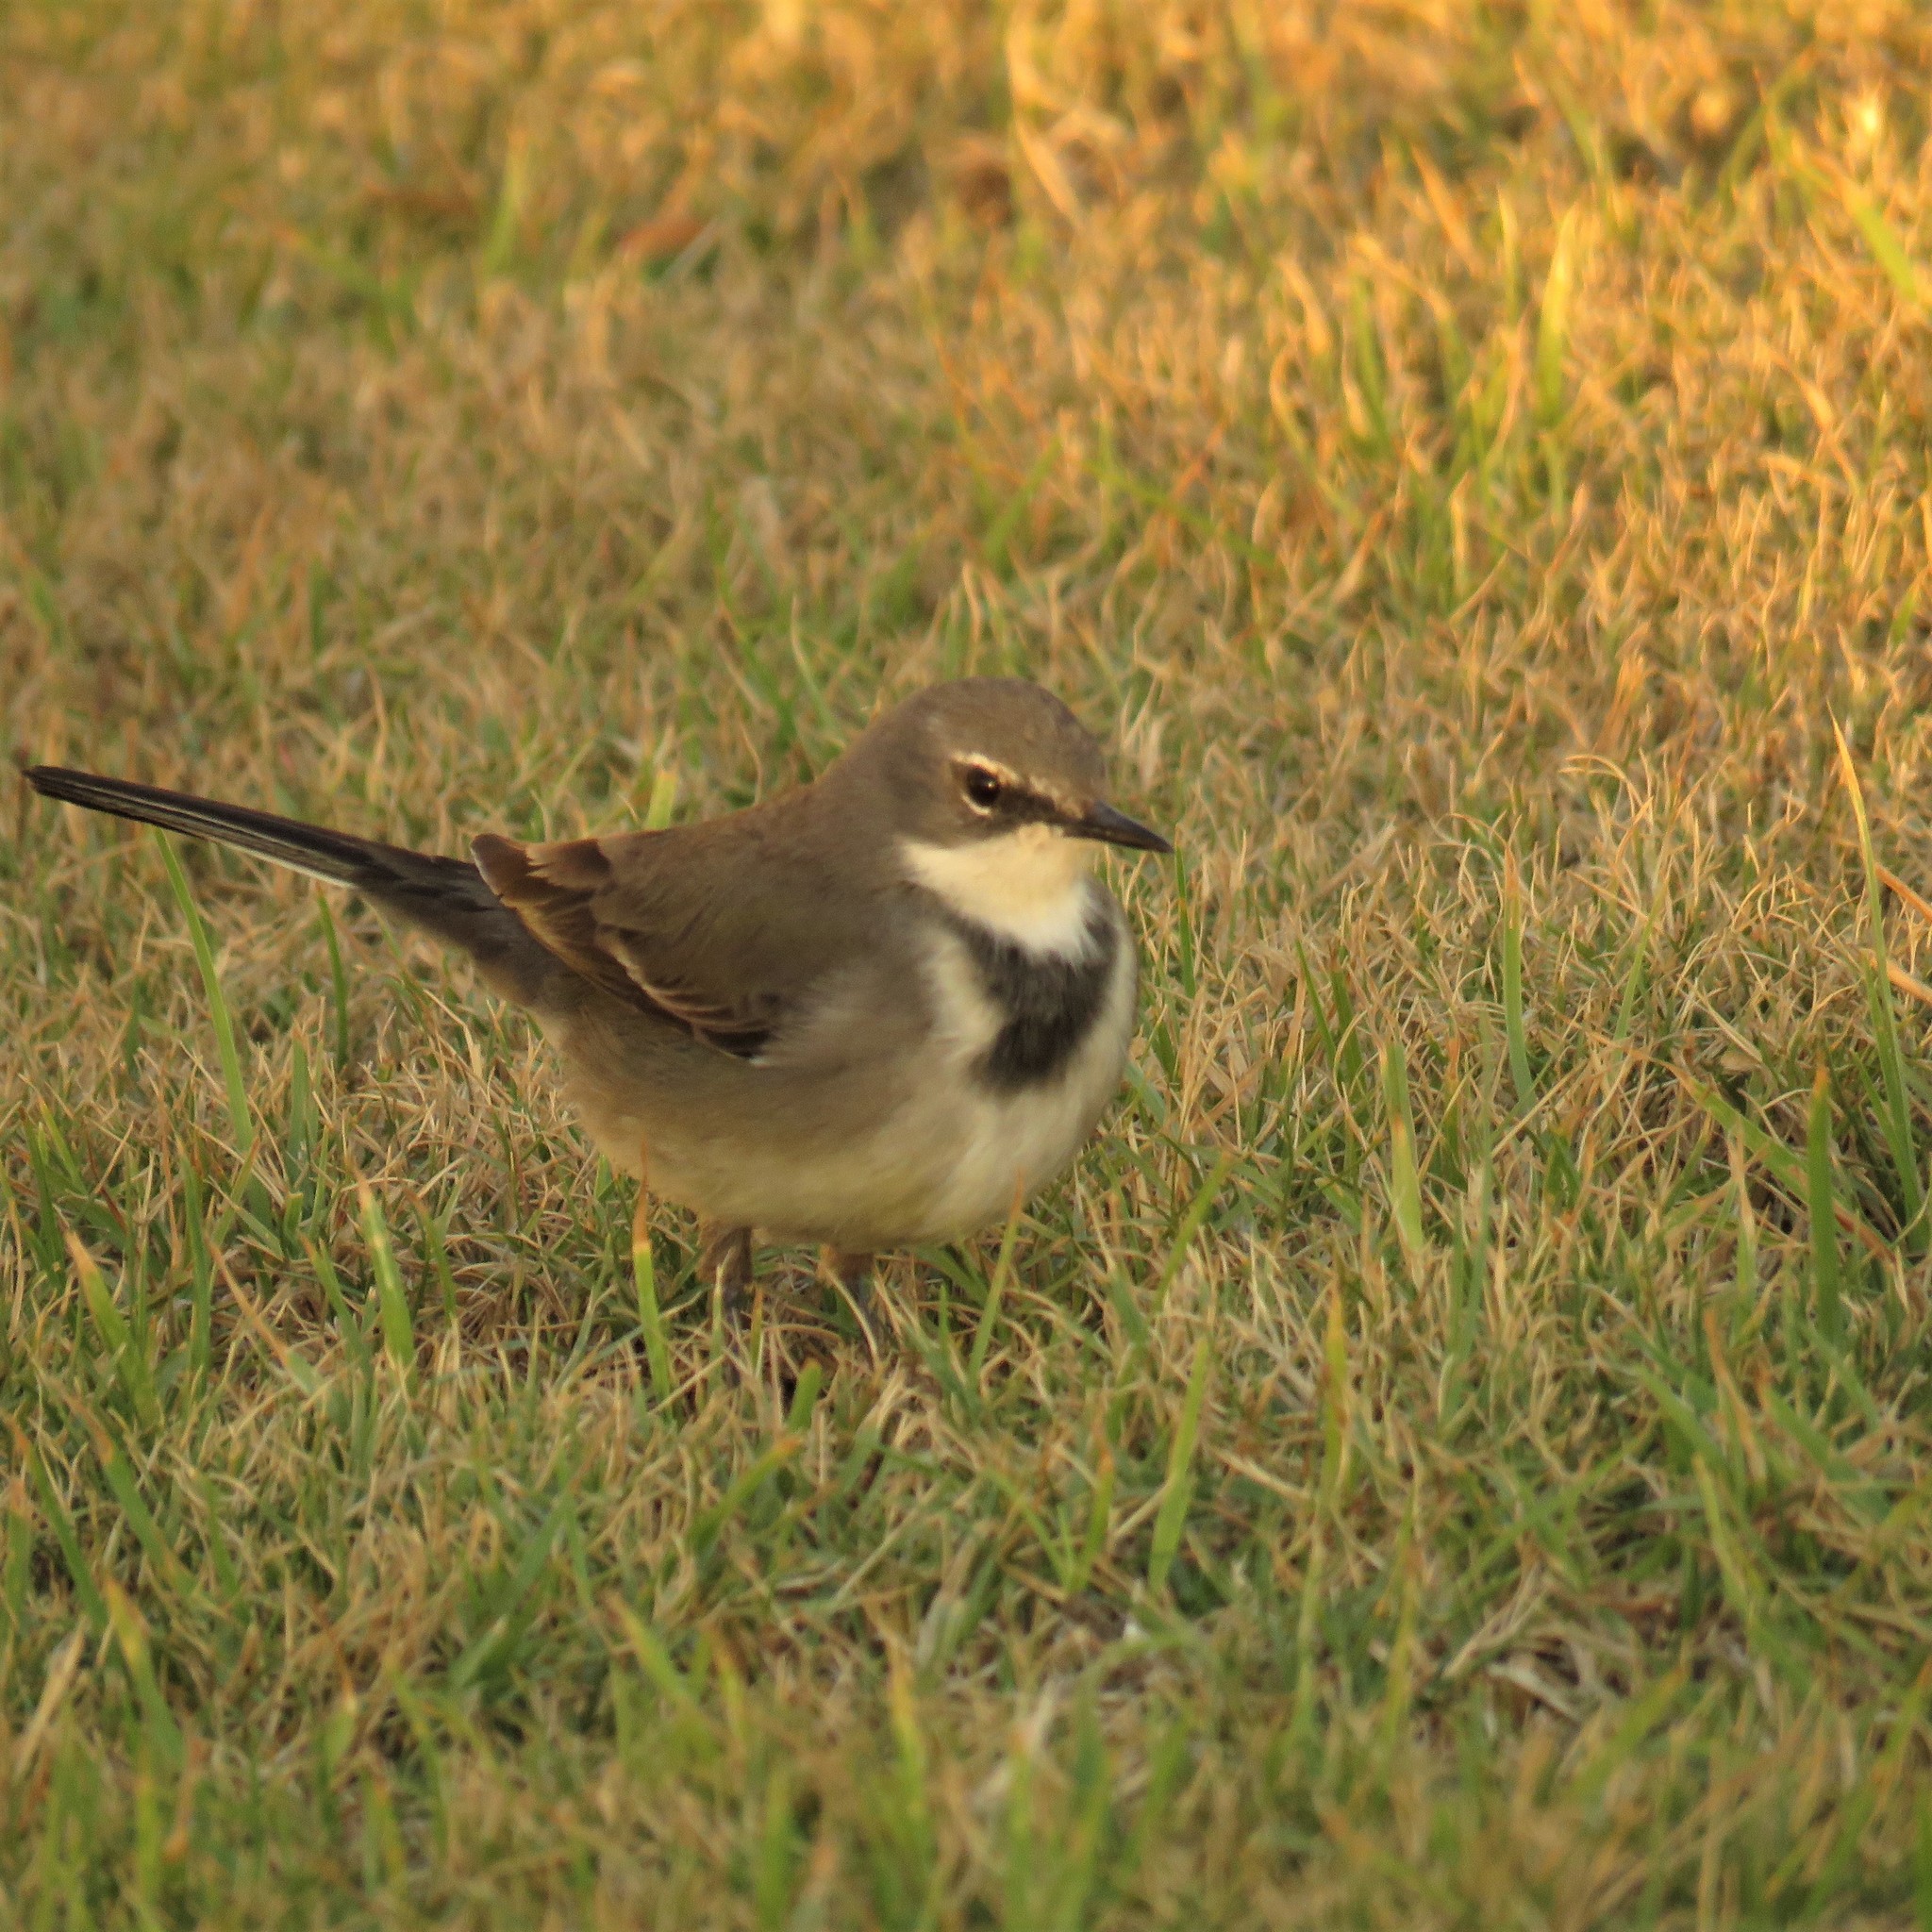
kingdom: Animalia
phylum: Chordata
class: Aves
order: Passeriformes
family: Motacillidae
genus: Motacilla
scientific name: Motacilla capensis
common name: Cape wagtail
